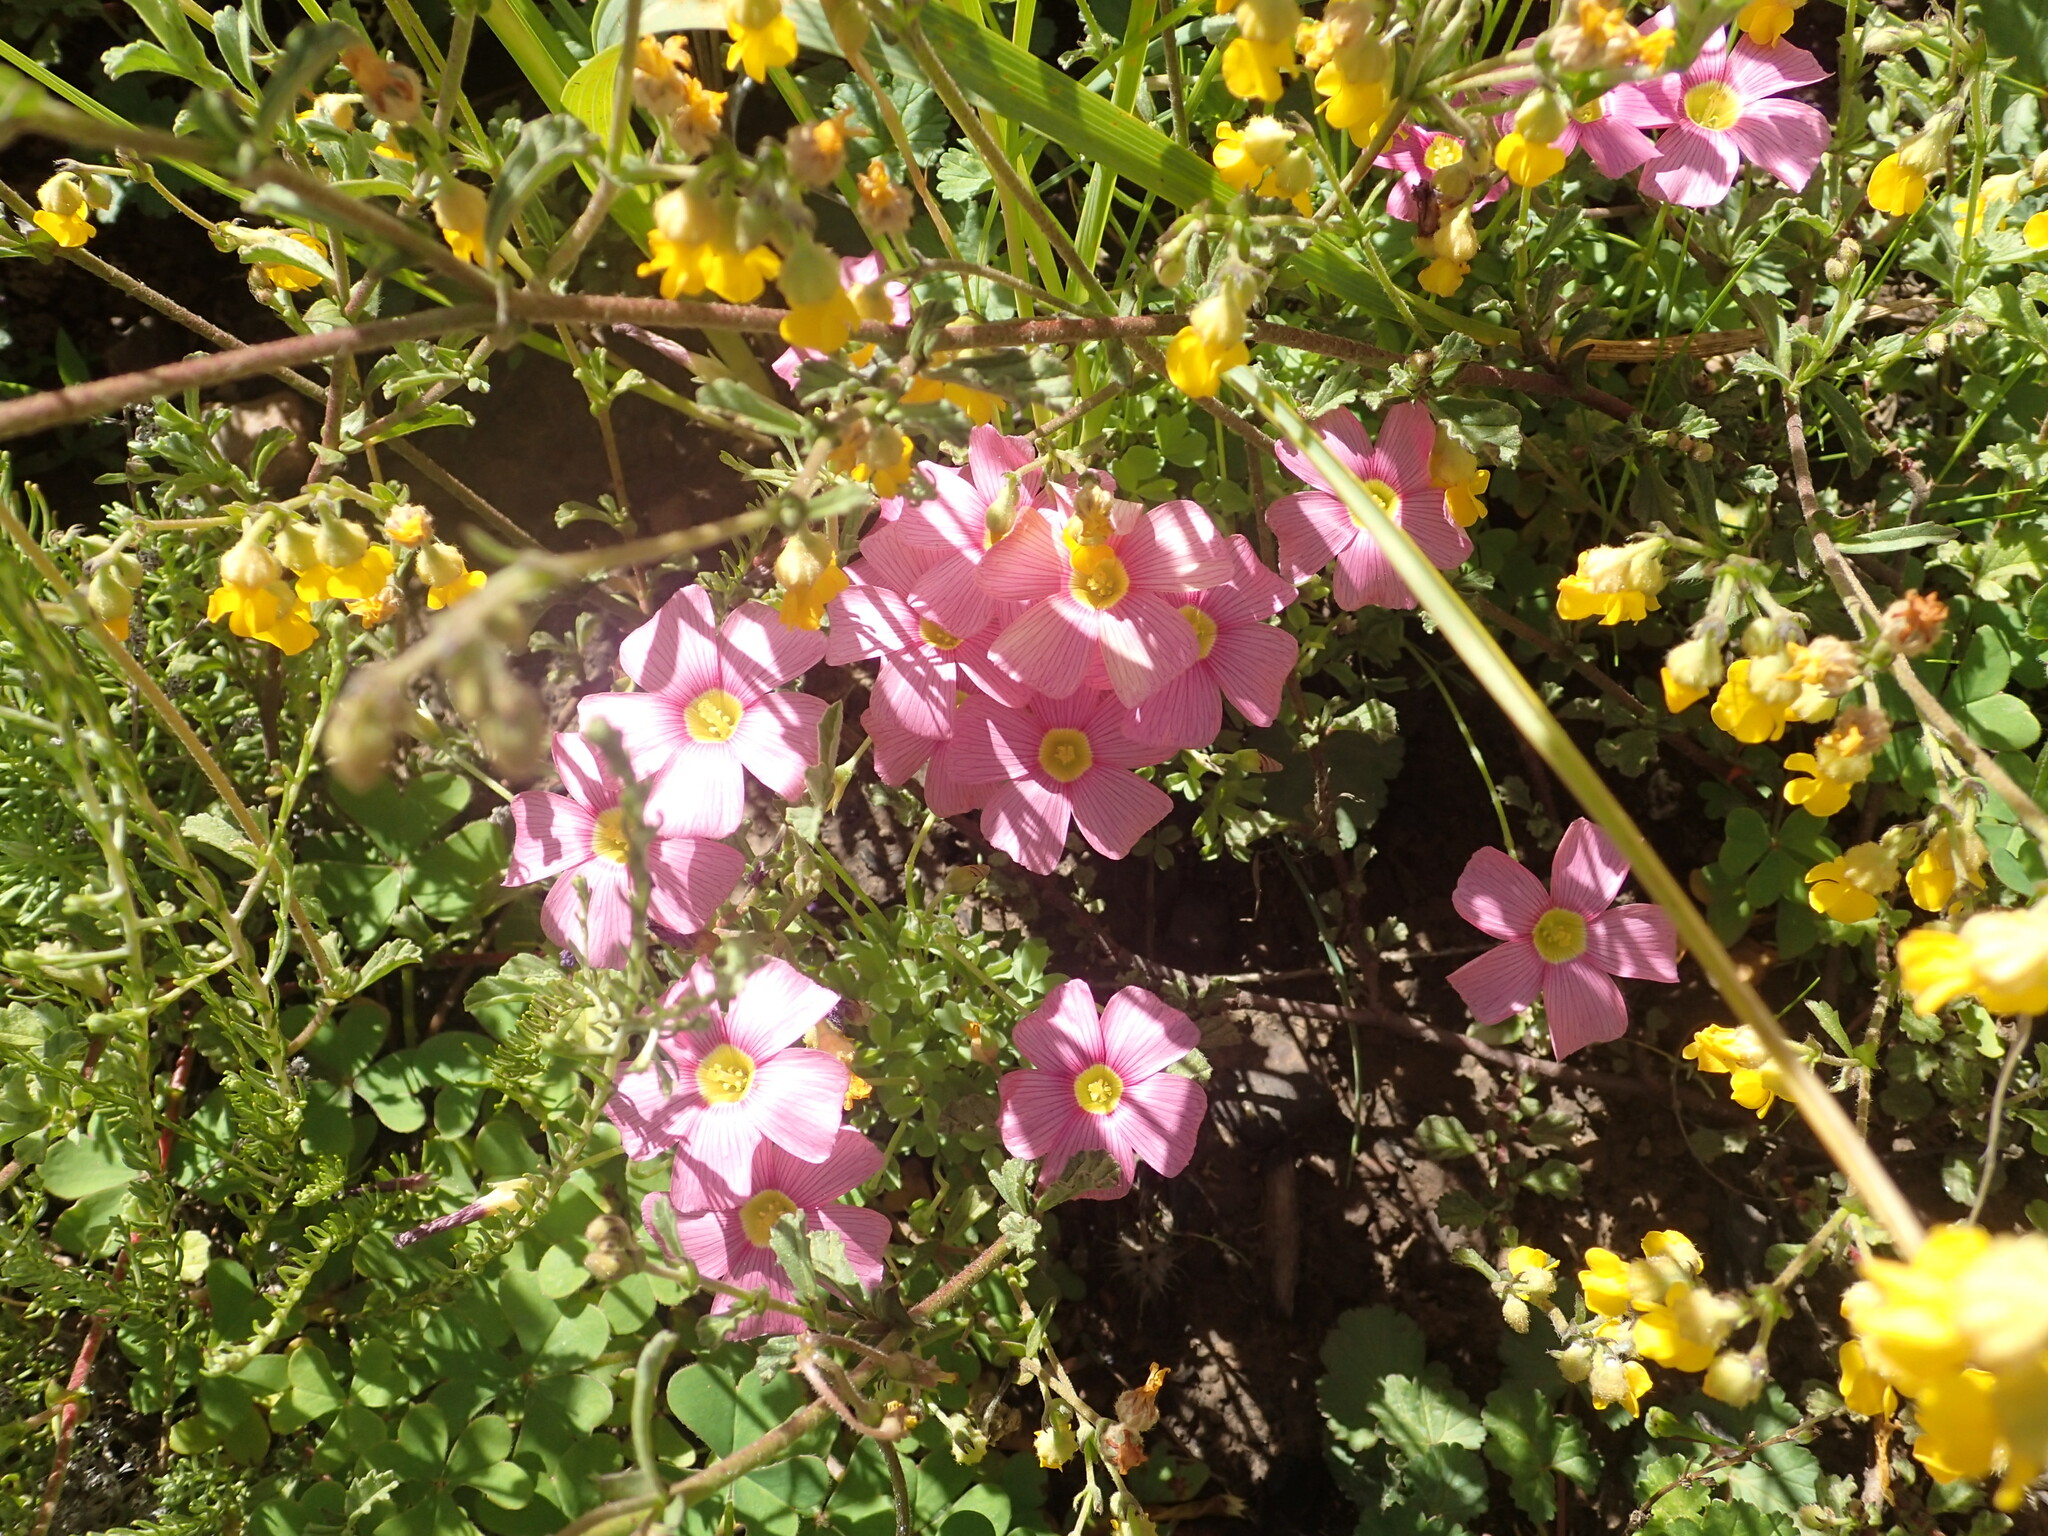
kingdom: Plantae
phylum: Tracheophyta
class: Magnoliopsida
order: Oxalidales
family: Oxalidaceae
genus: Oxalis
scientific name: Oxalis obtusa
